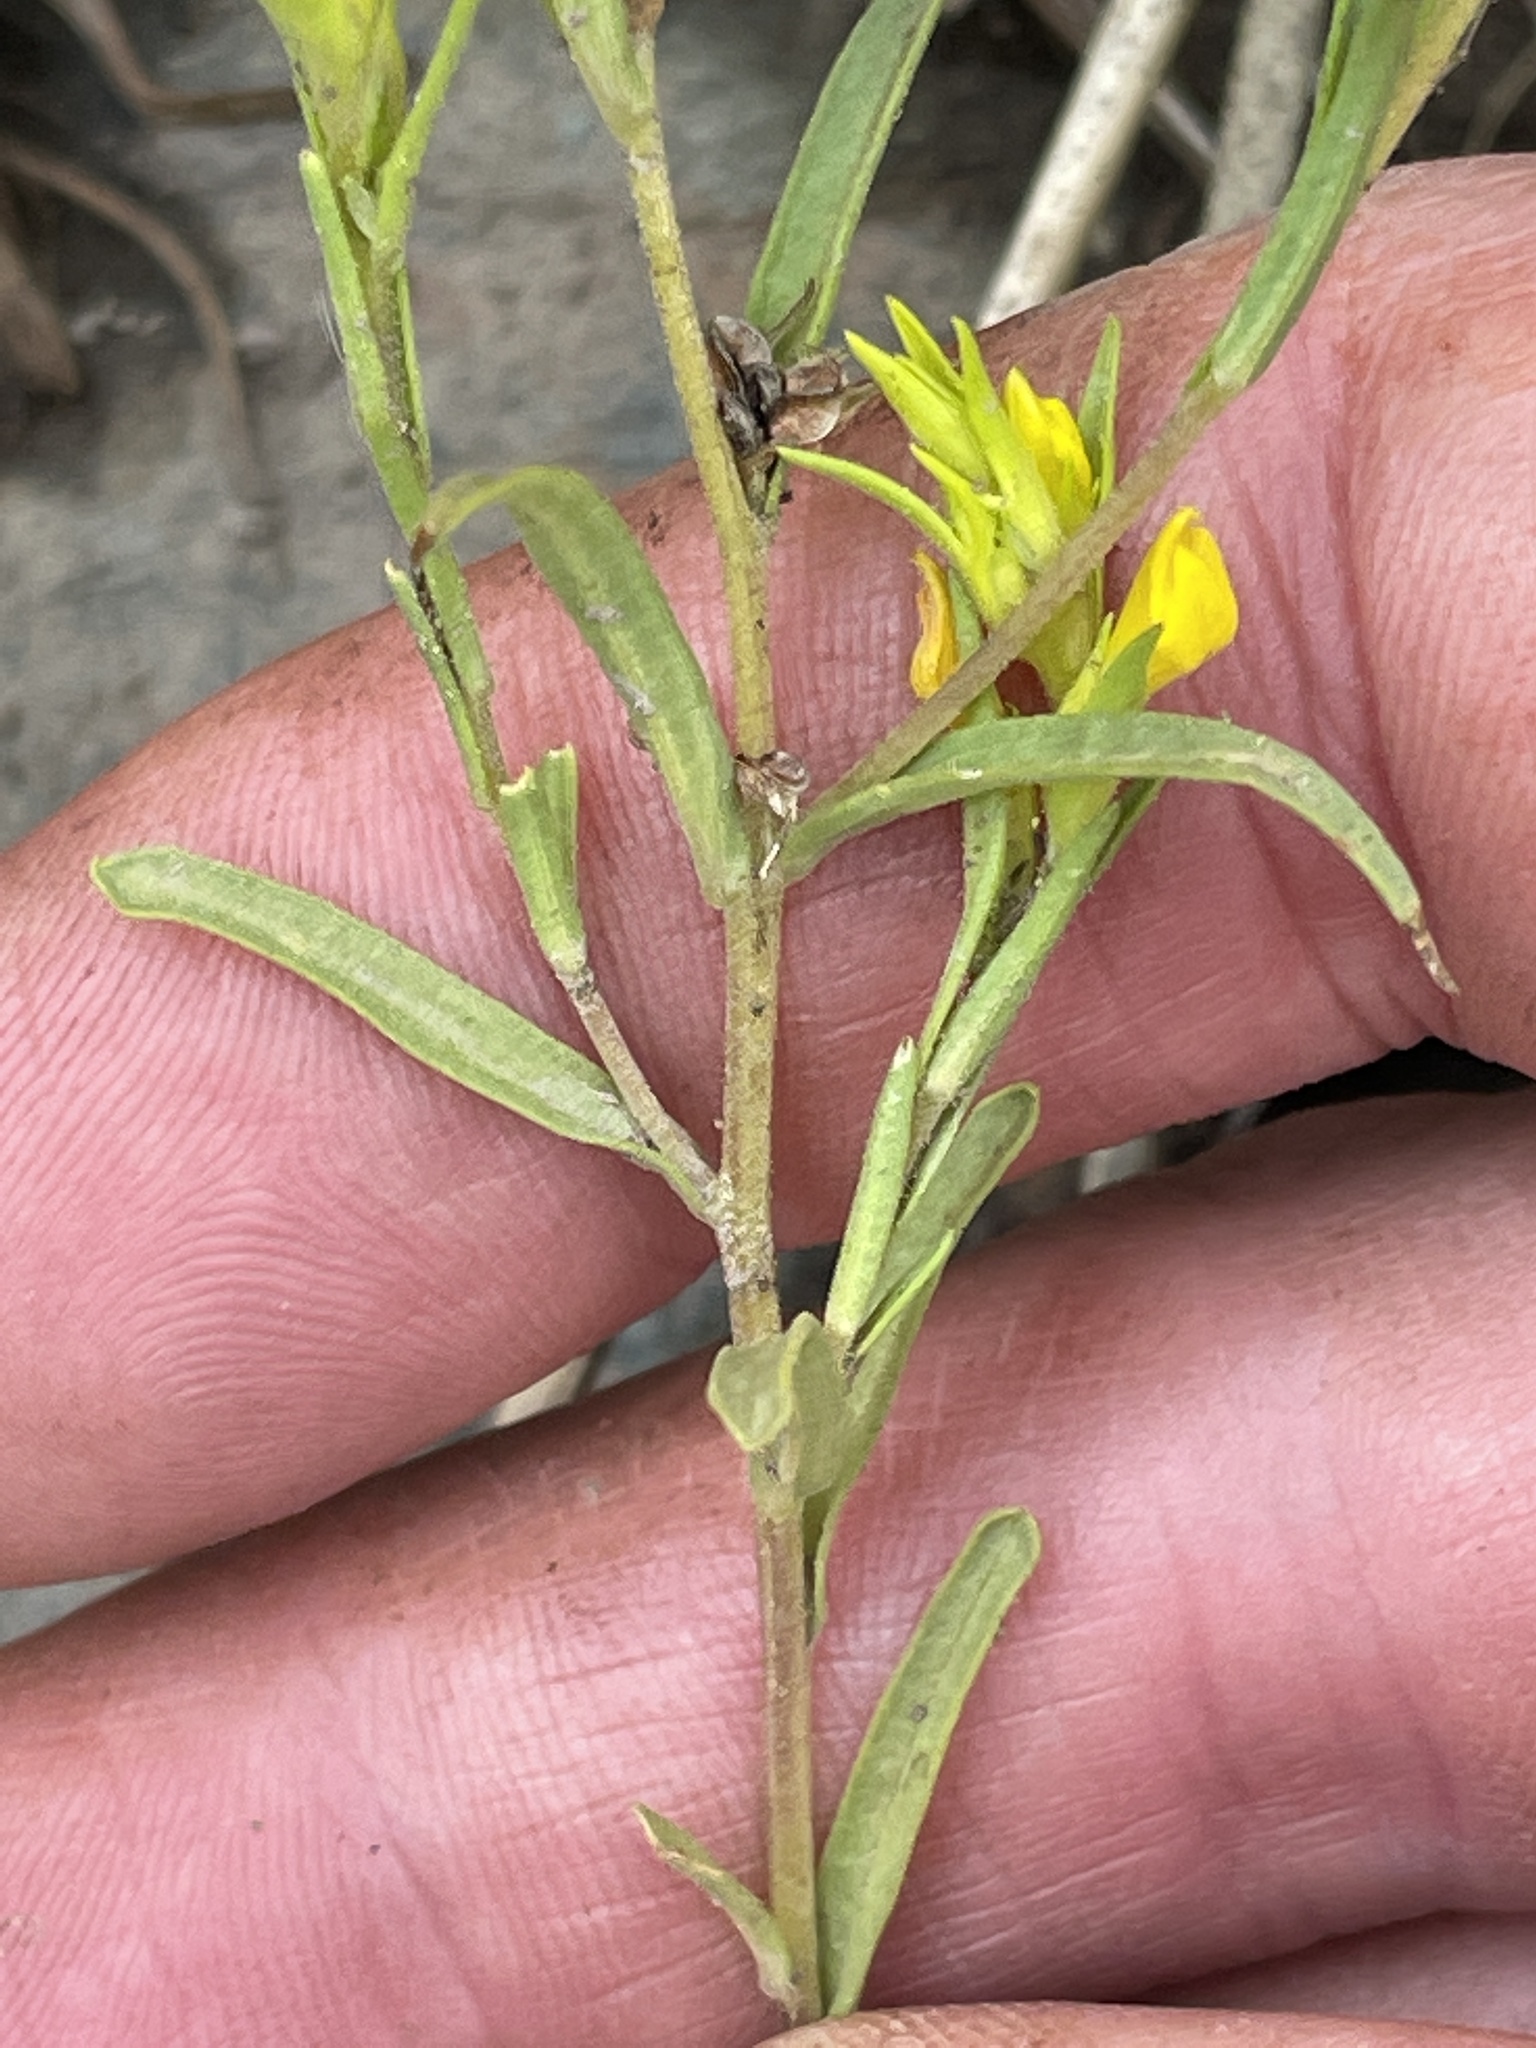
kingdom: Plantae
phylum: Tracheophyta
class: Magnoliopsida
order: Lamiales
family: Orobanchaceae
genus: Orthocarpus
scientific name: Orthocarpus tolmiei
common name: Tolmie's owl-clover
